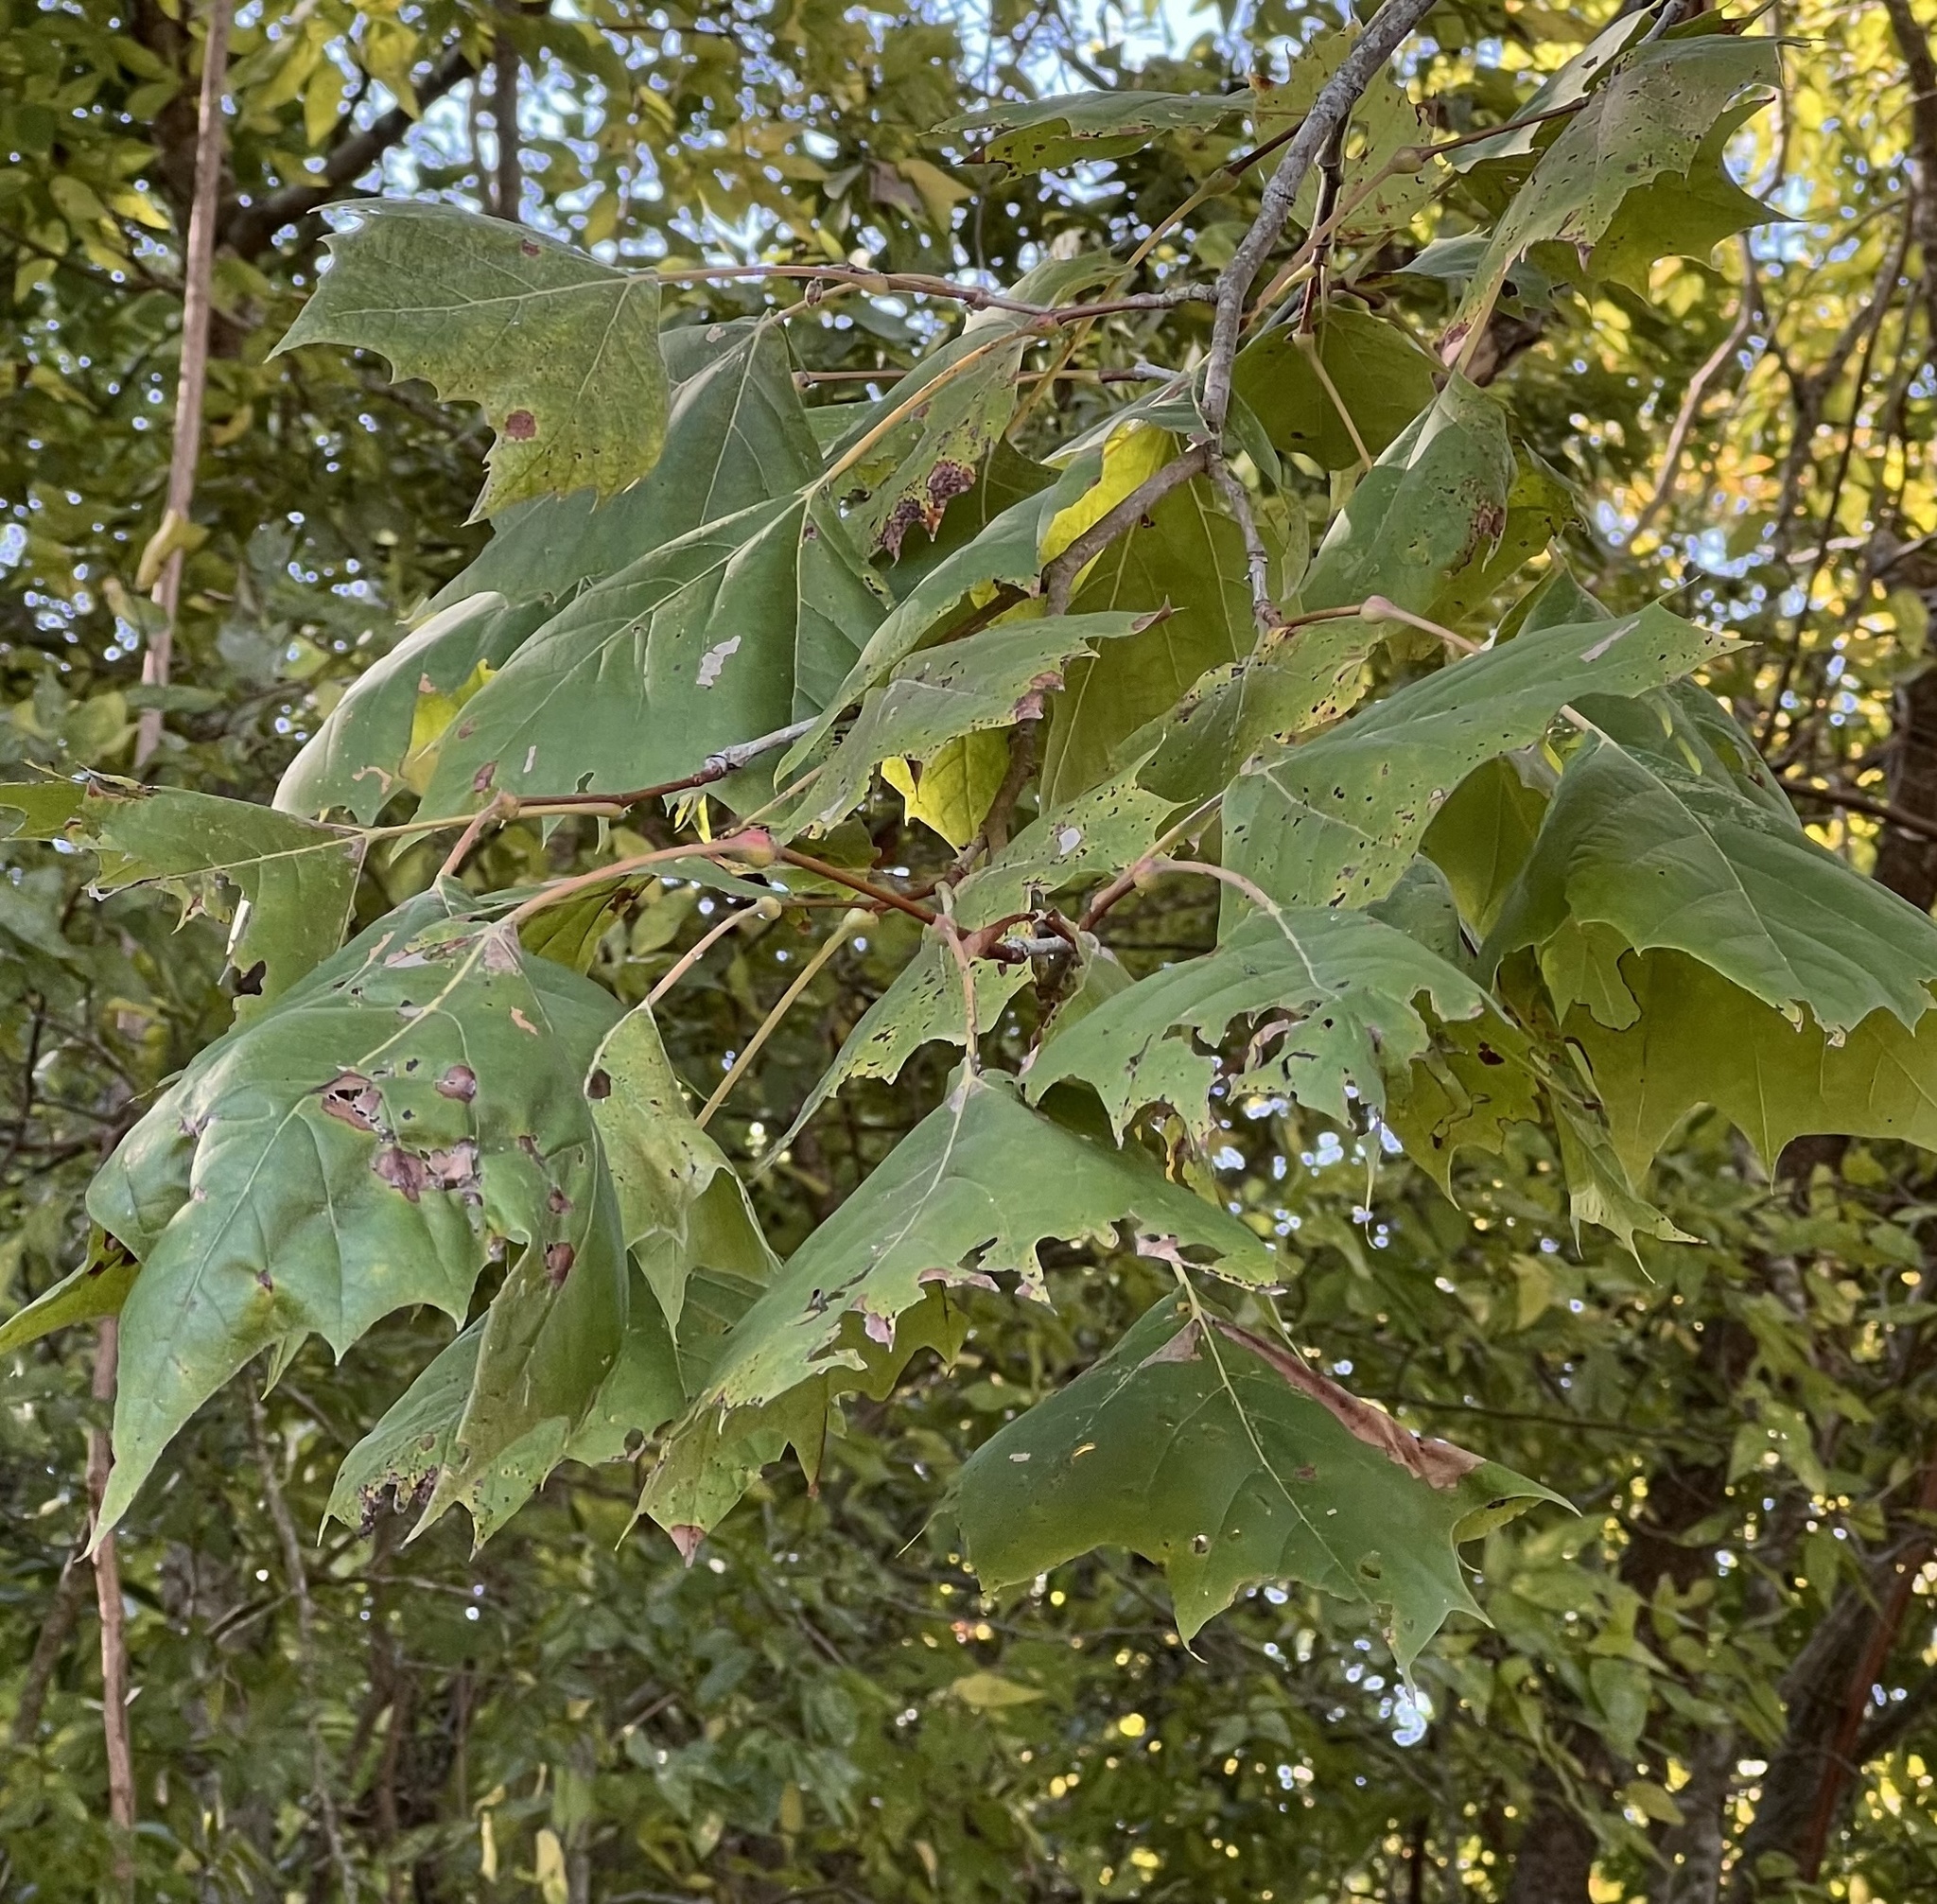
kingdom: Plantae
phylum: Tracheophyta
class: Magnoliopsida
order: Proteales
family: Platanaceae
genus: Platanus
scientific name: Platanus occidentalis
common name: American sycamore
